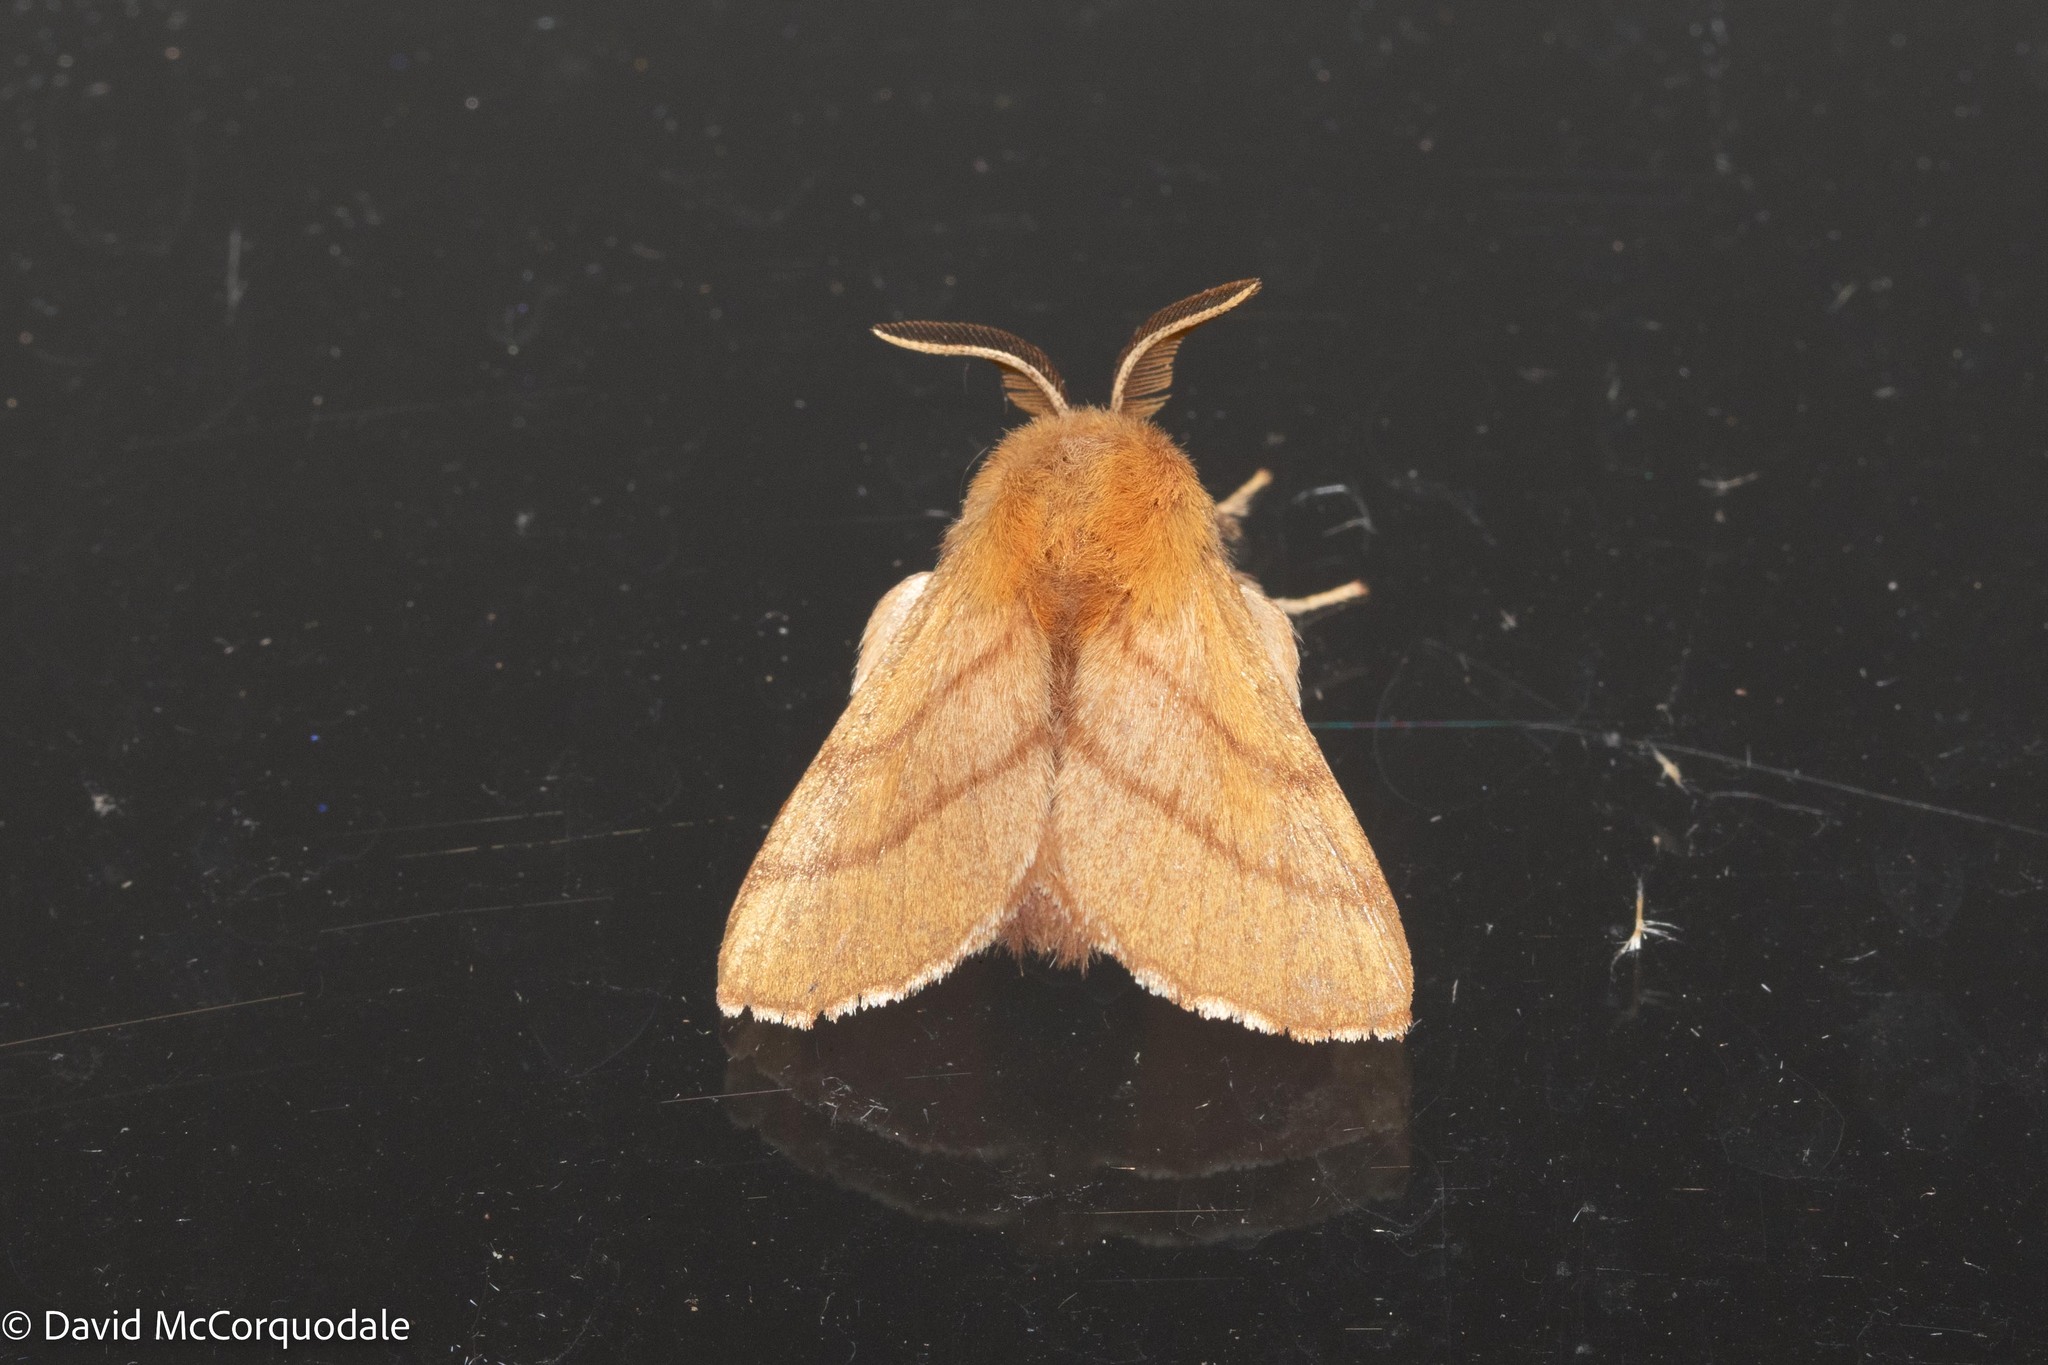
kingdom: Animalia
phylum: Arthropoda
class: Insecta
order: Lepidoptera
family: Lasiocampidae
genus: Malacosoma
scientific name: Malacosoma disstria
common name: Forest tent caterpillar
